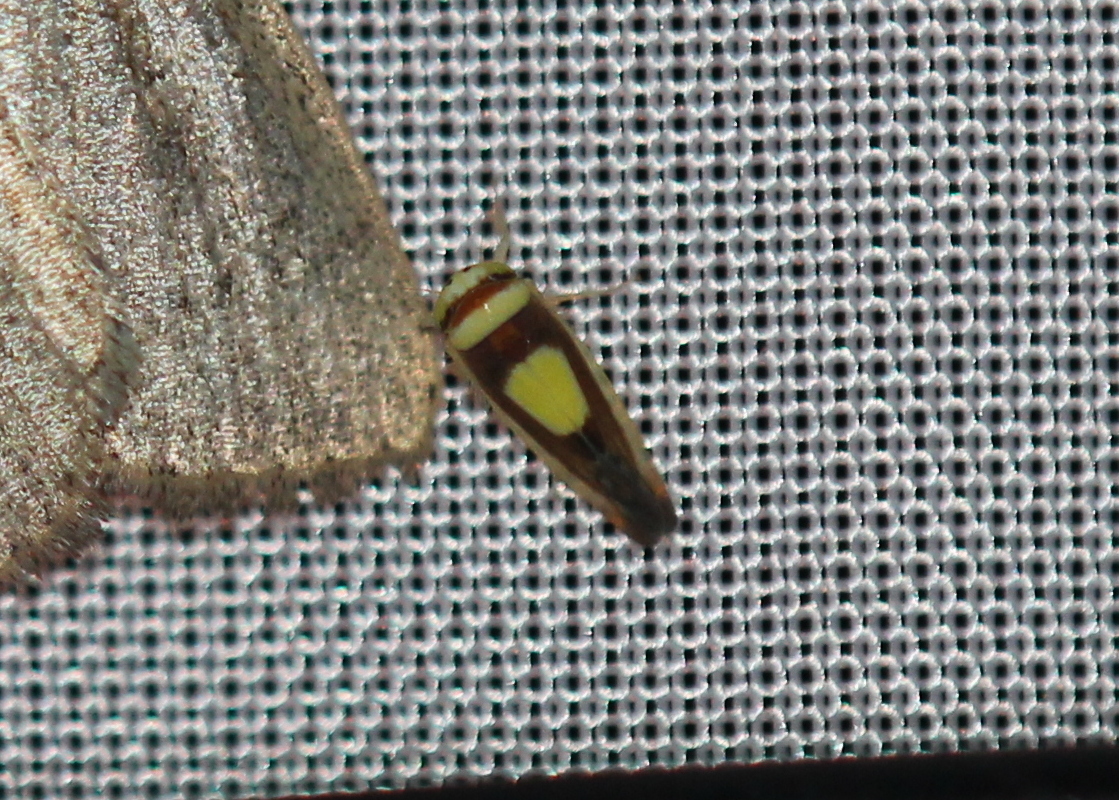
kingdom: Animalia
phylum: Arthropoda
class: Insecta
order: Hemiptera
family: Cicadellidae
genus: Colladonus
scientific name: Colladonus clitellarius
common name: The saddleback leafhopper
